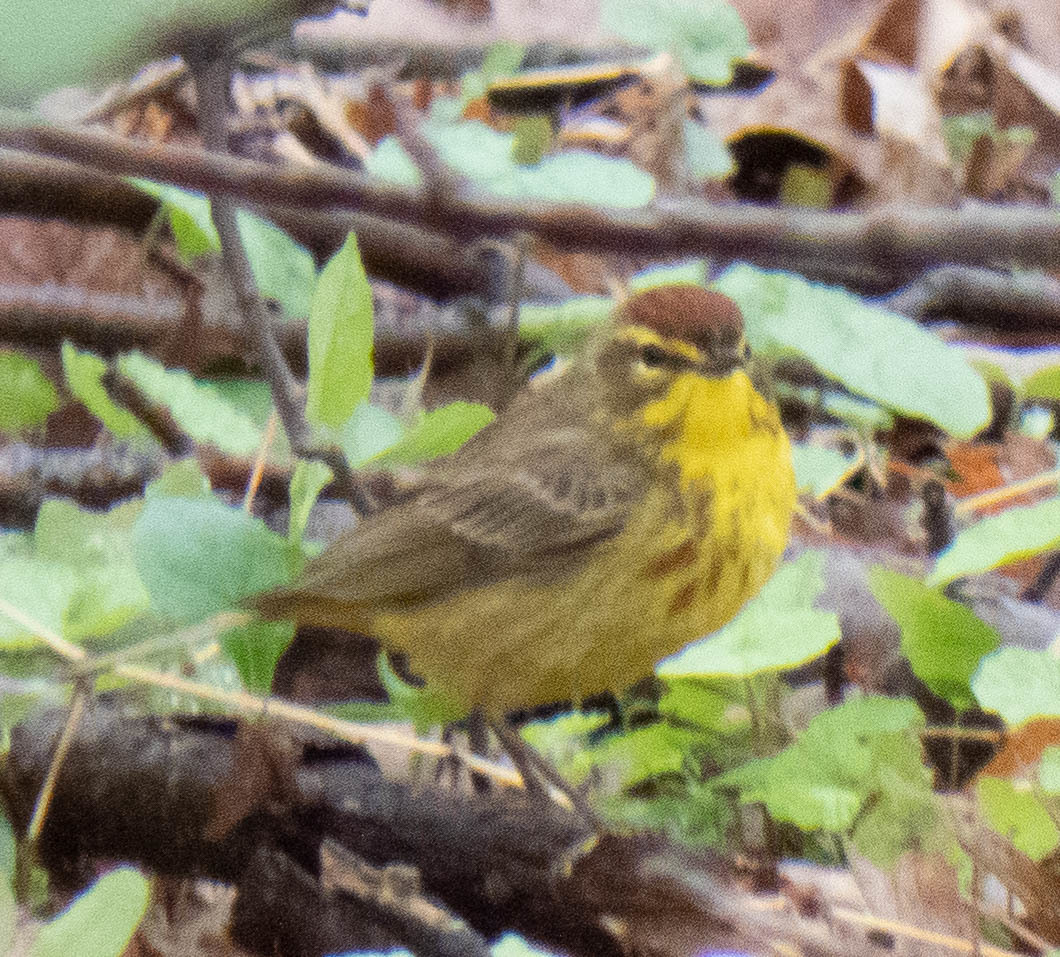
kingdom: Animalia
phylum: Chordata
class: Aves
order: Passeriformes
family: Parulidae
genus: Setophaga
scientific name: Setophaga palmarum
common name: Palm warbler
